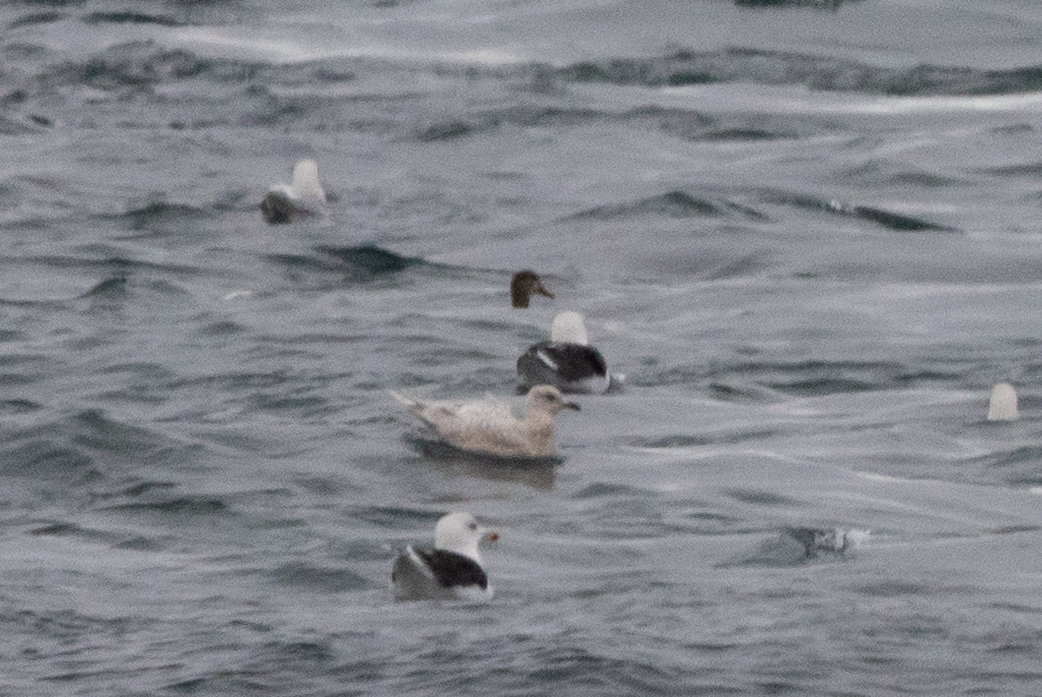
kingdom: Animalia
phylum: Chordata
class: Aves
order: Charadriiformes
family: Laridae
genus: Larus
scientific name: Larus glaucoides
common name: Iceland gull
